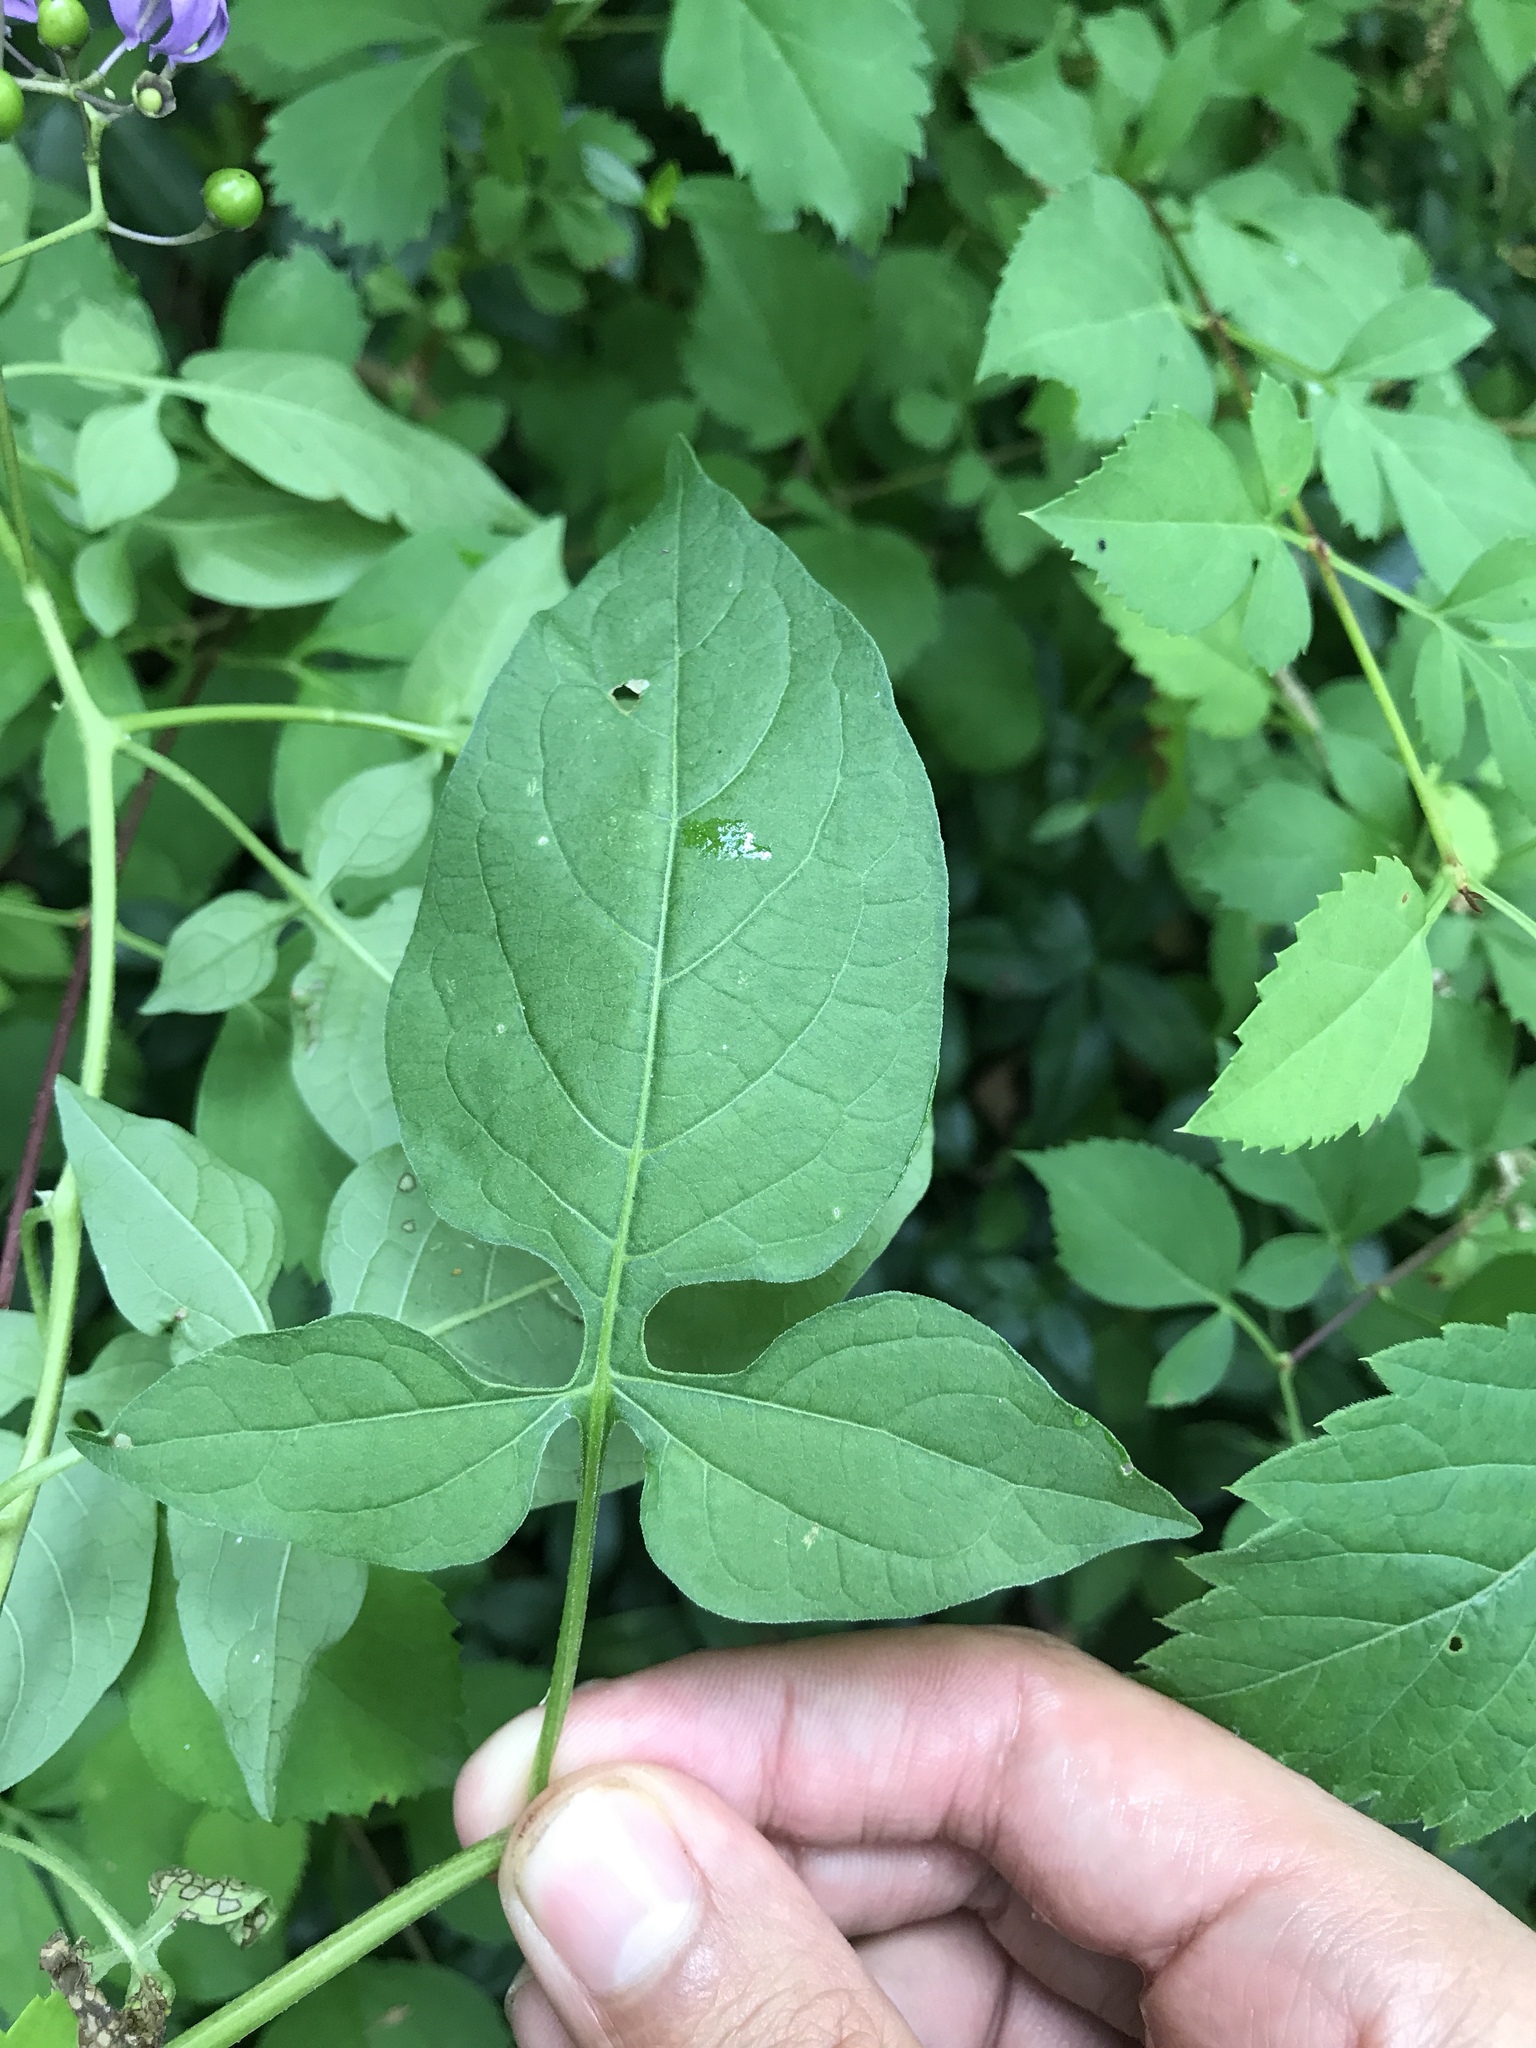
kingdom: Plantae
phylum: Tracheophyta
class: Magnoliopsida
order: Solanales
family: Solanaceae
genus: Solanum
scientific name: Solanum dulcamara
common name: Climbing nightshade
